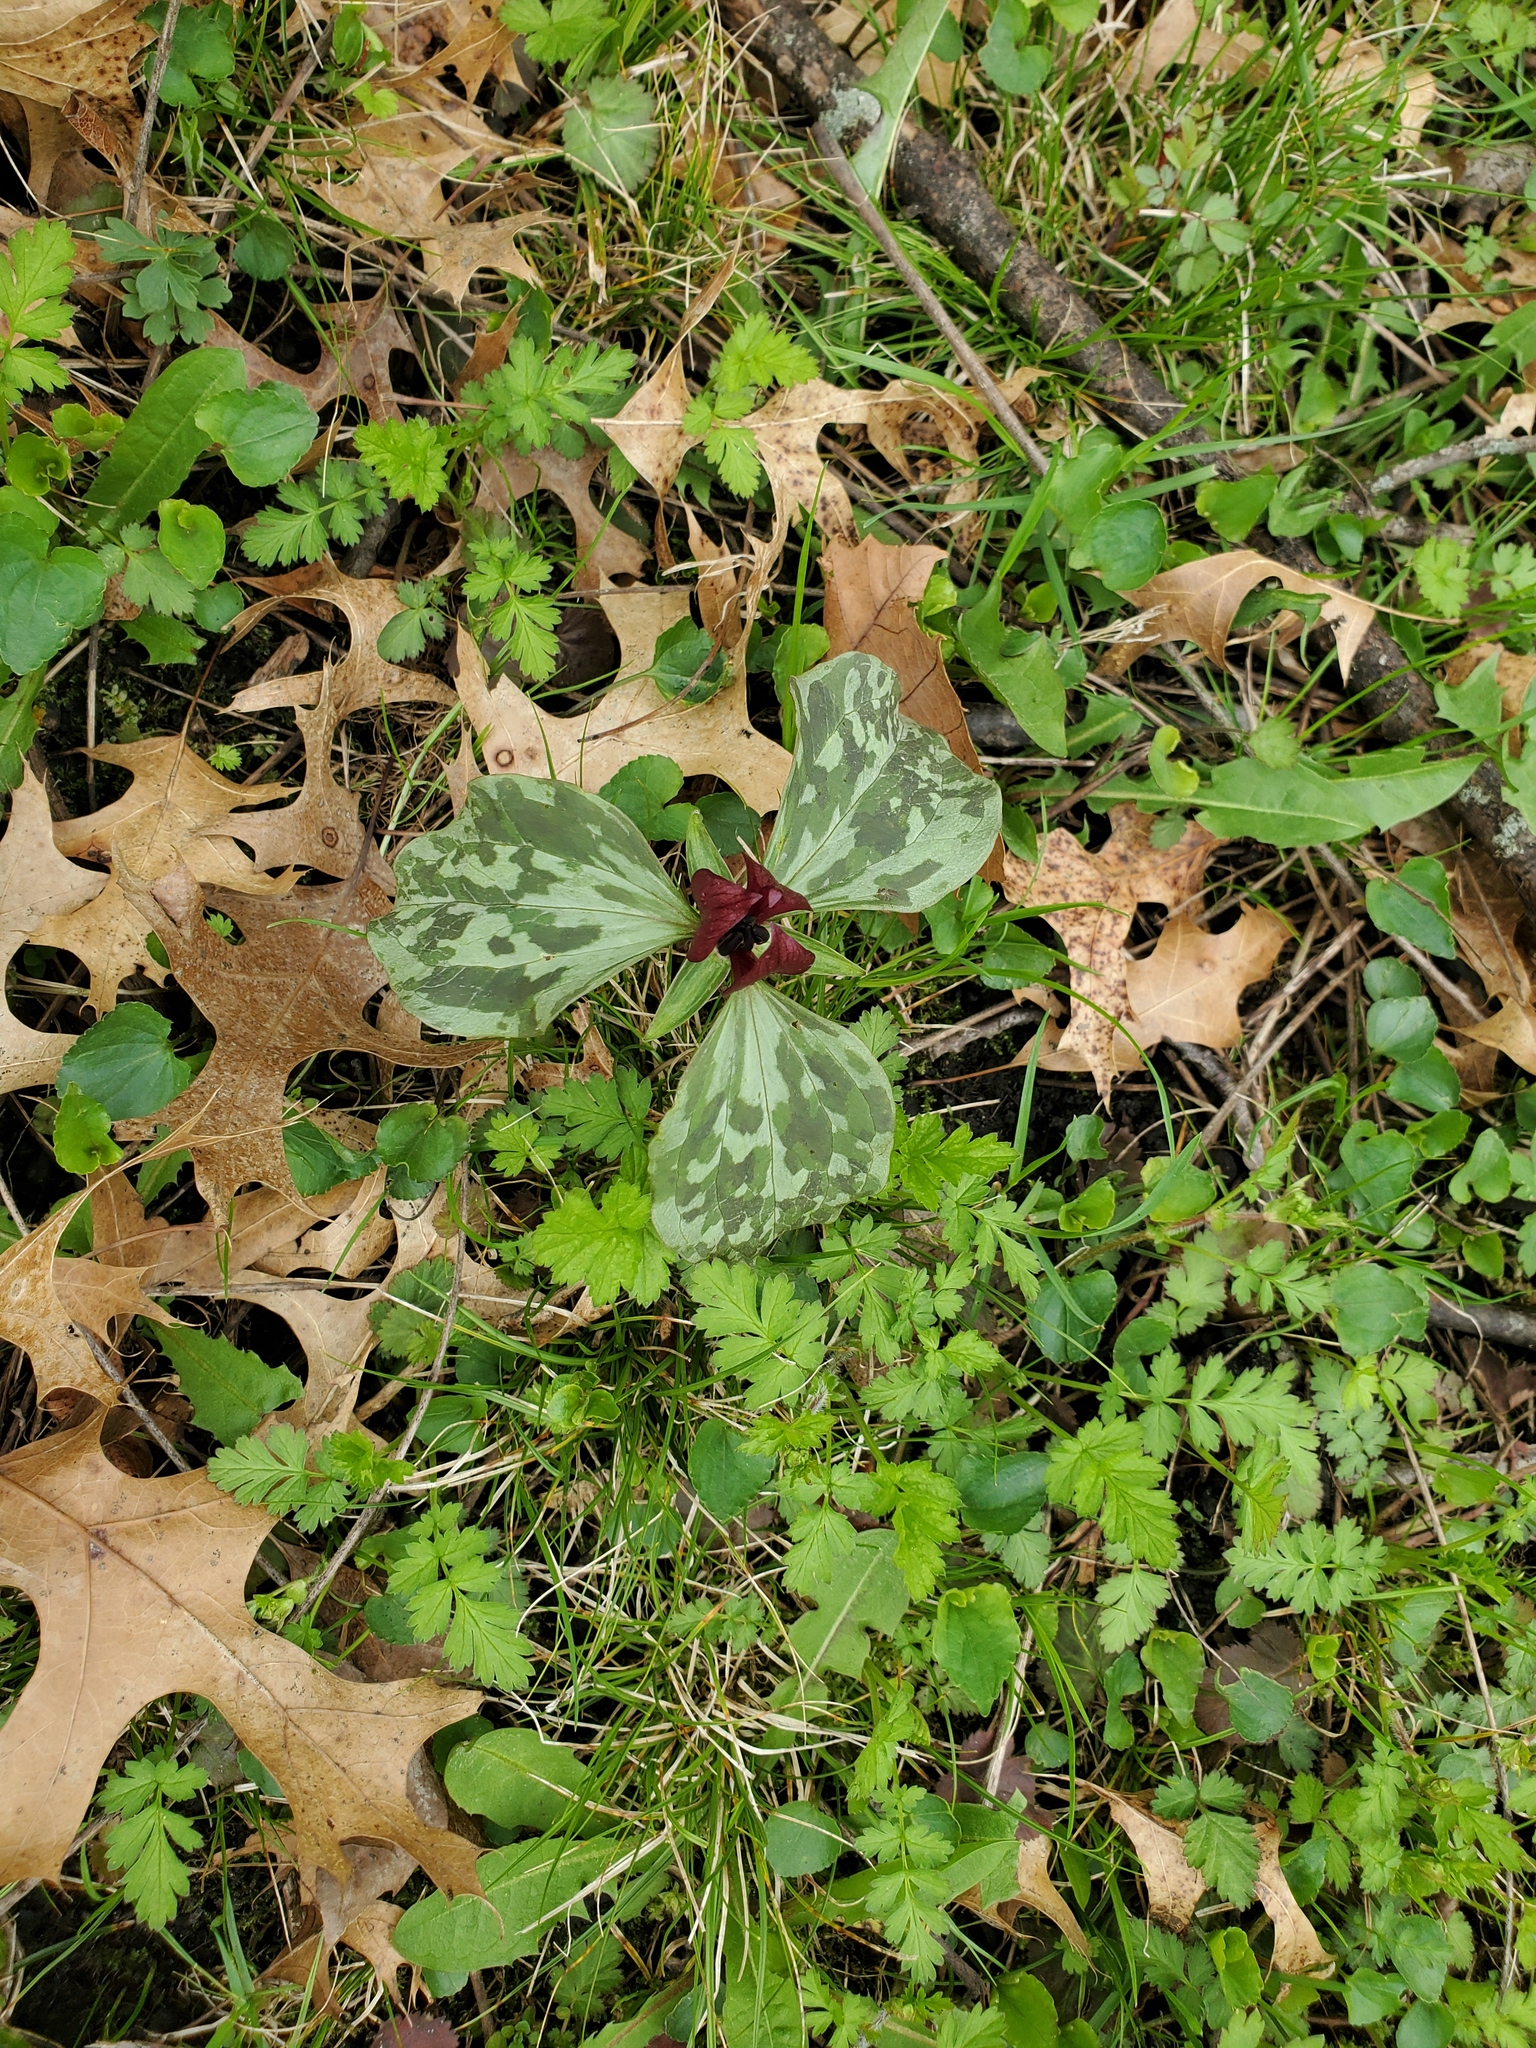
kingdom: Plantae
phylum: Tracheophyta
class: Liliopsida
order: Liliales
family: Melanthiaceae
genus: Trillium
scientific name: Trillium recurvatum
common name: Bloody butcher
